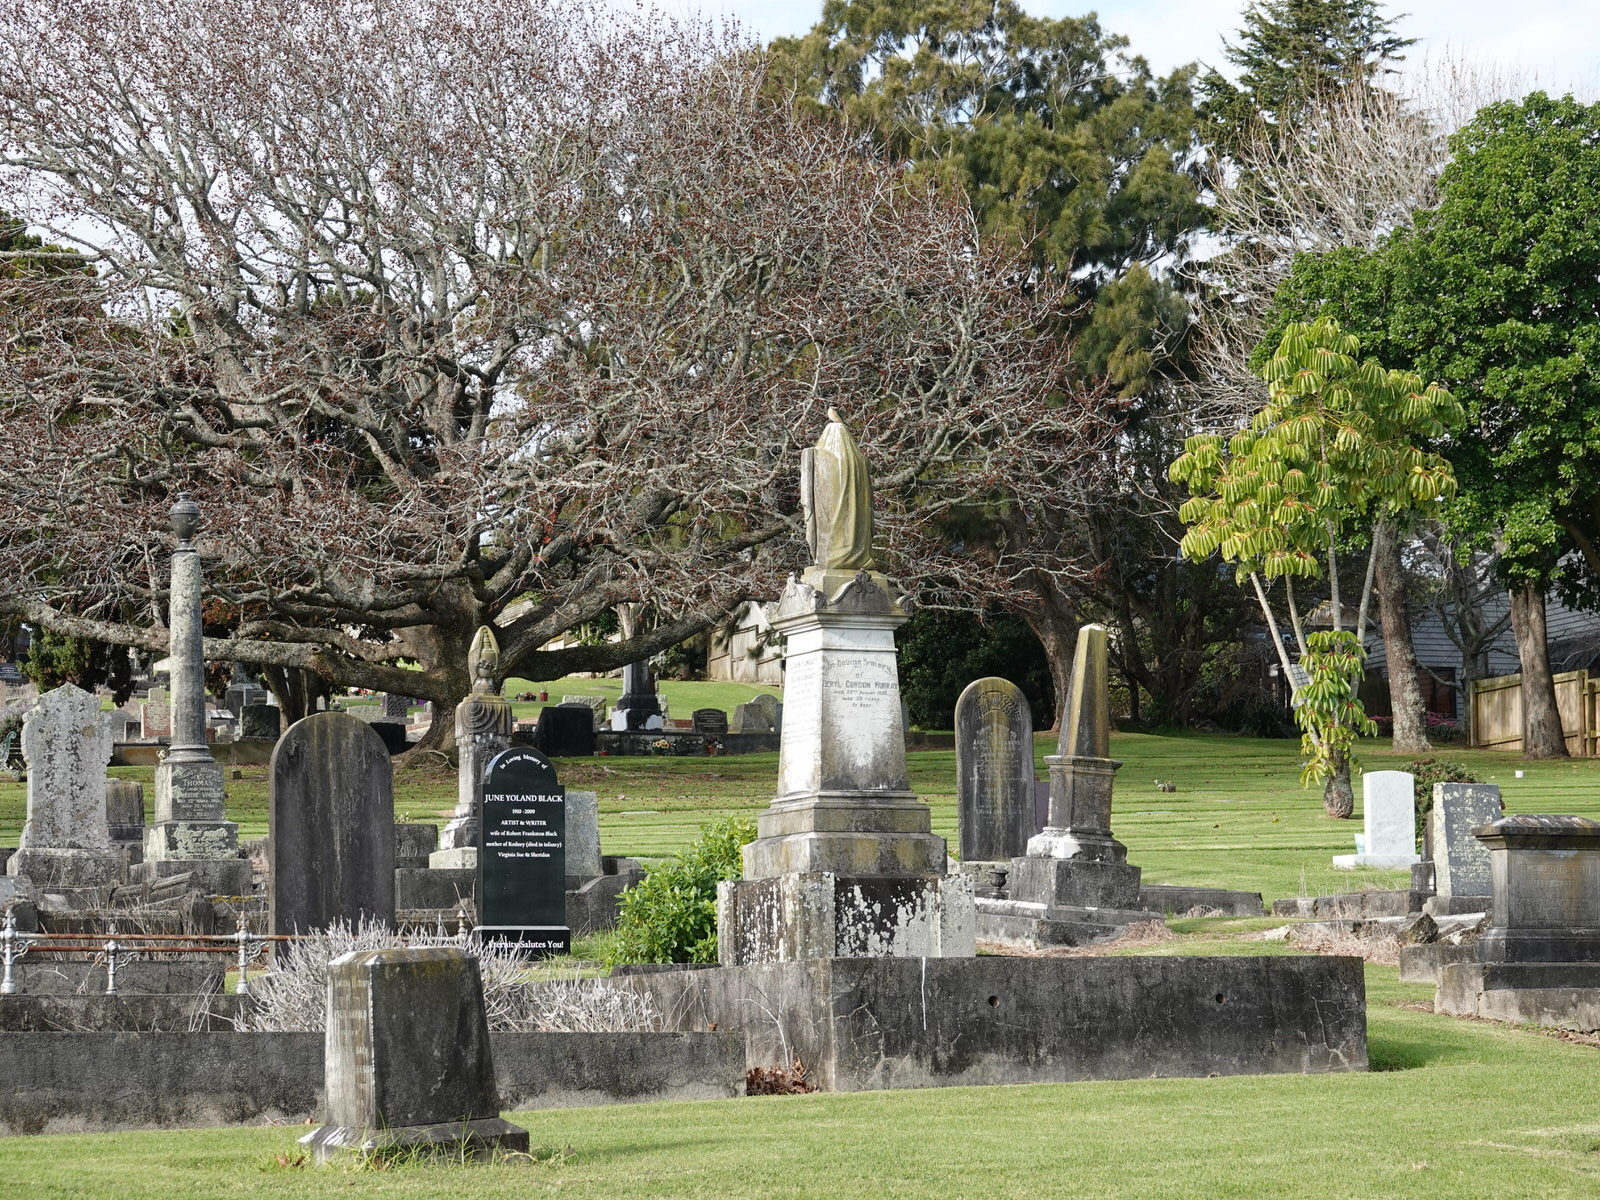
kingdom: Animalia
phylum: Chordata
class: Aves
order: Coraciiformes
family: Alcedinidae
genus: Todiramphus
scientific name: Todiramphus sanctus
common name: Sacred kingfisher
